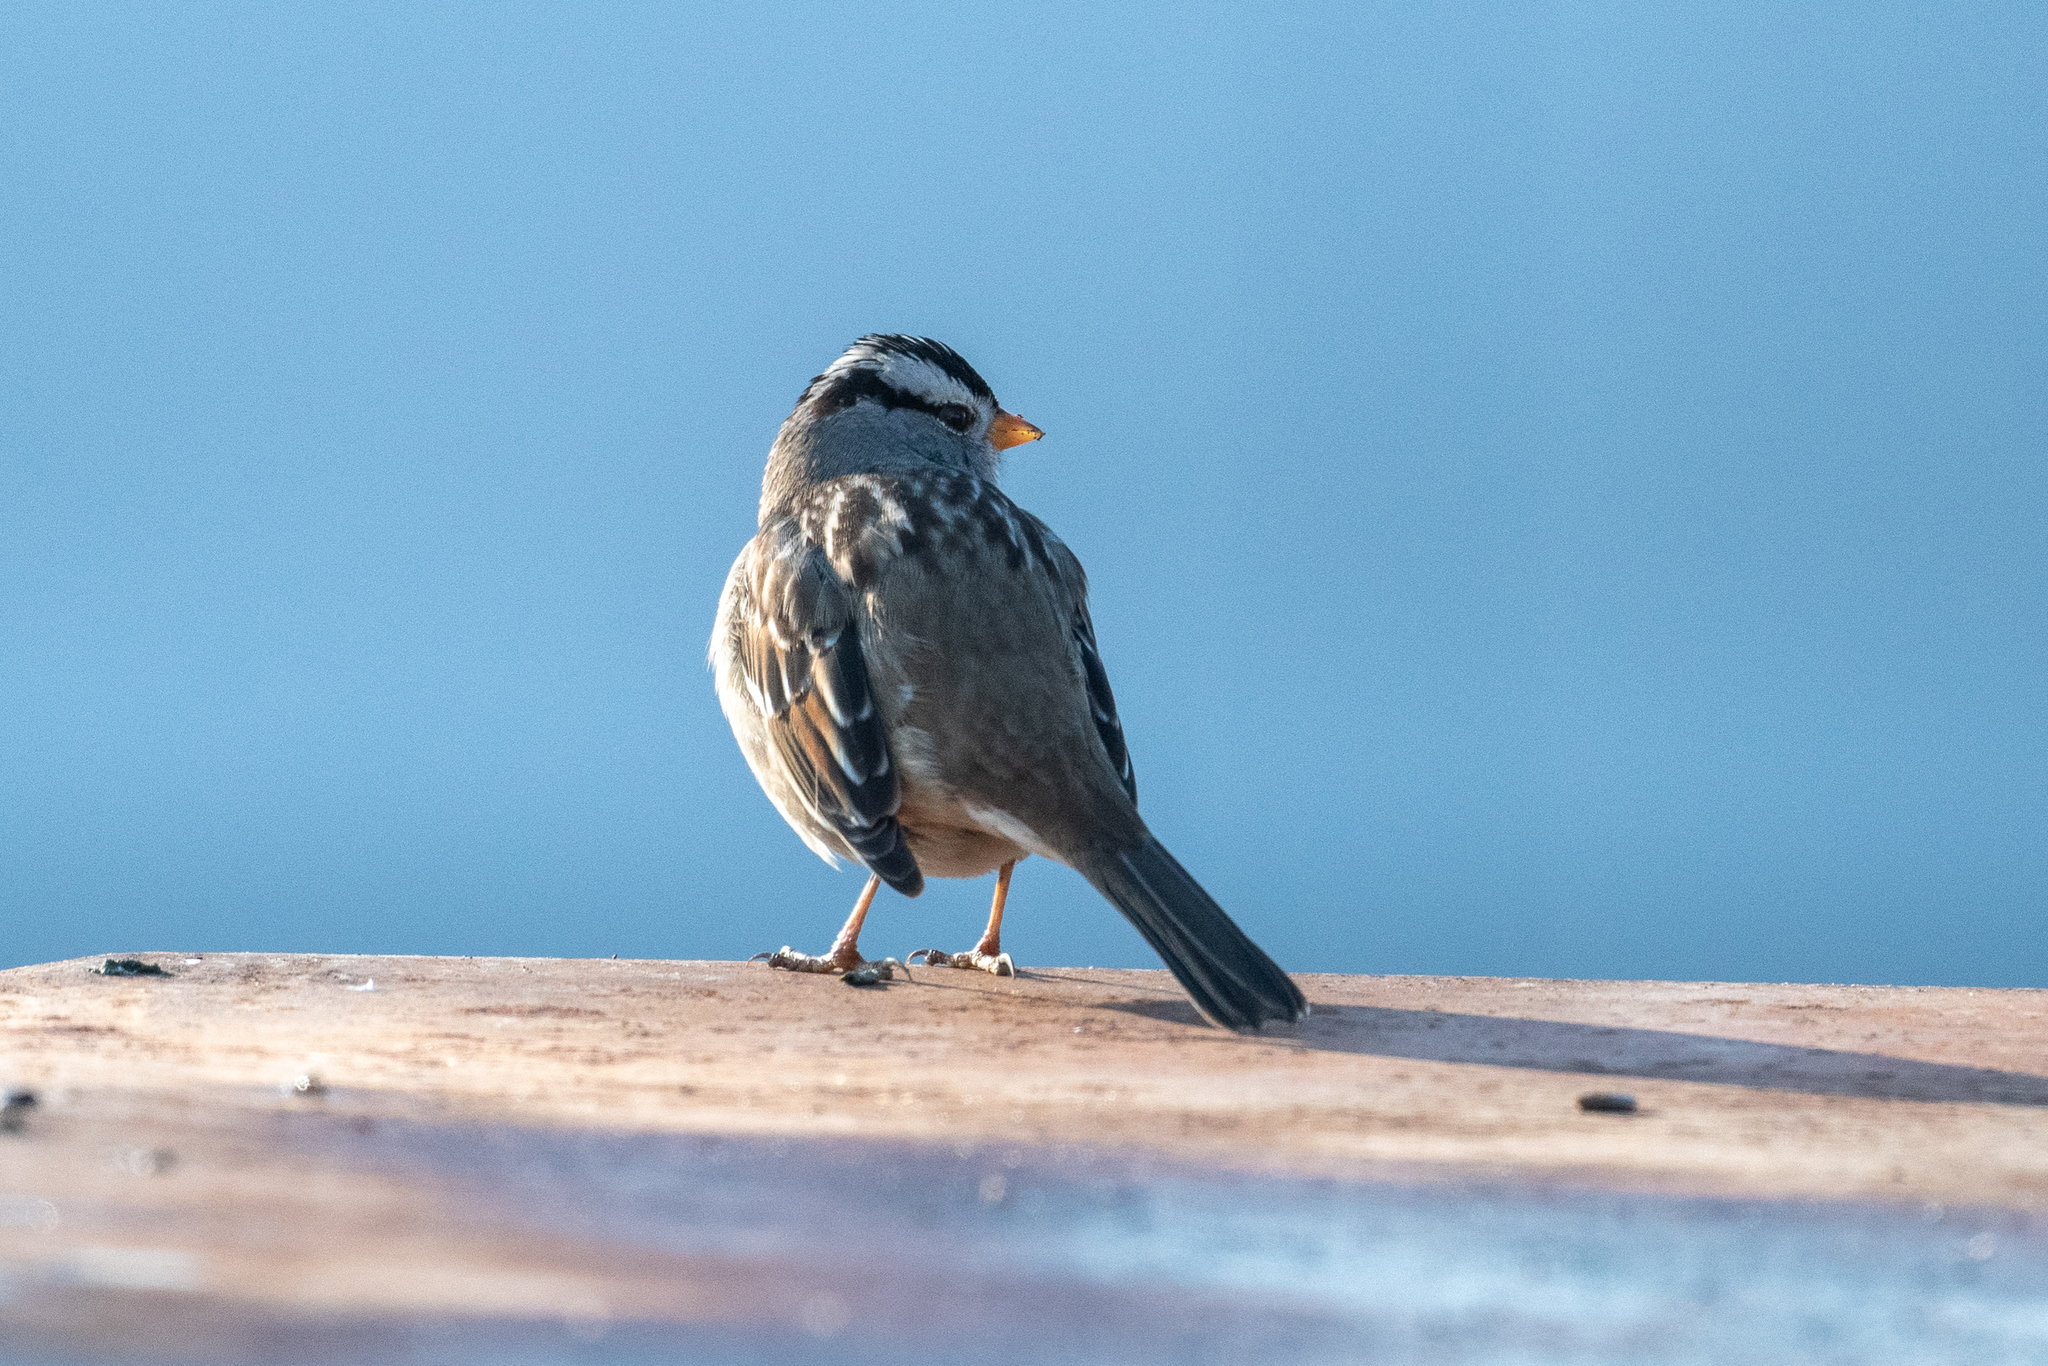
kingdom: Animalia
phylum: Chordata
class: Aves
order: Passeriformes
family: Passerellidae
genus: Zonotrichia
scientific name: Zonotrichia leucophrys
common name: White-crowned sparrow
